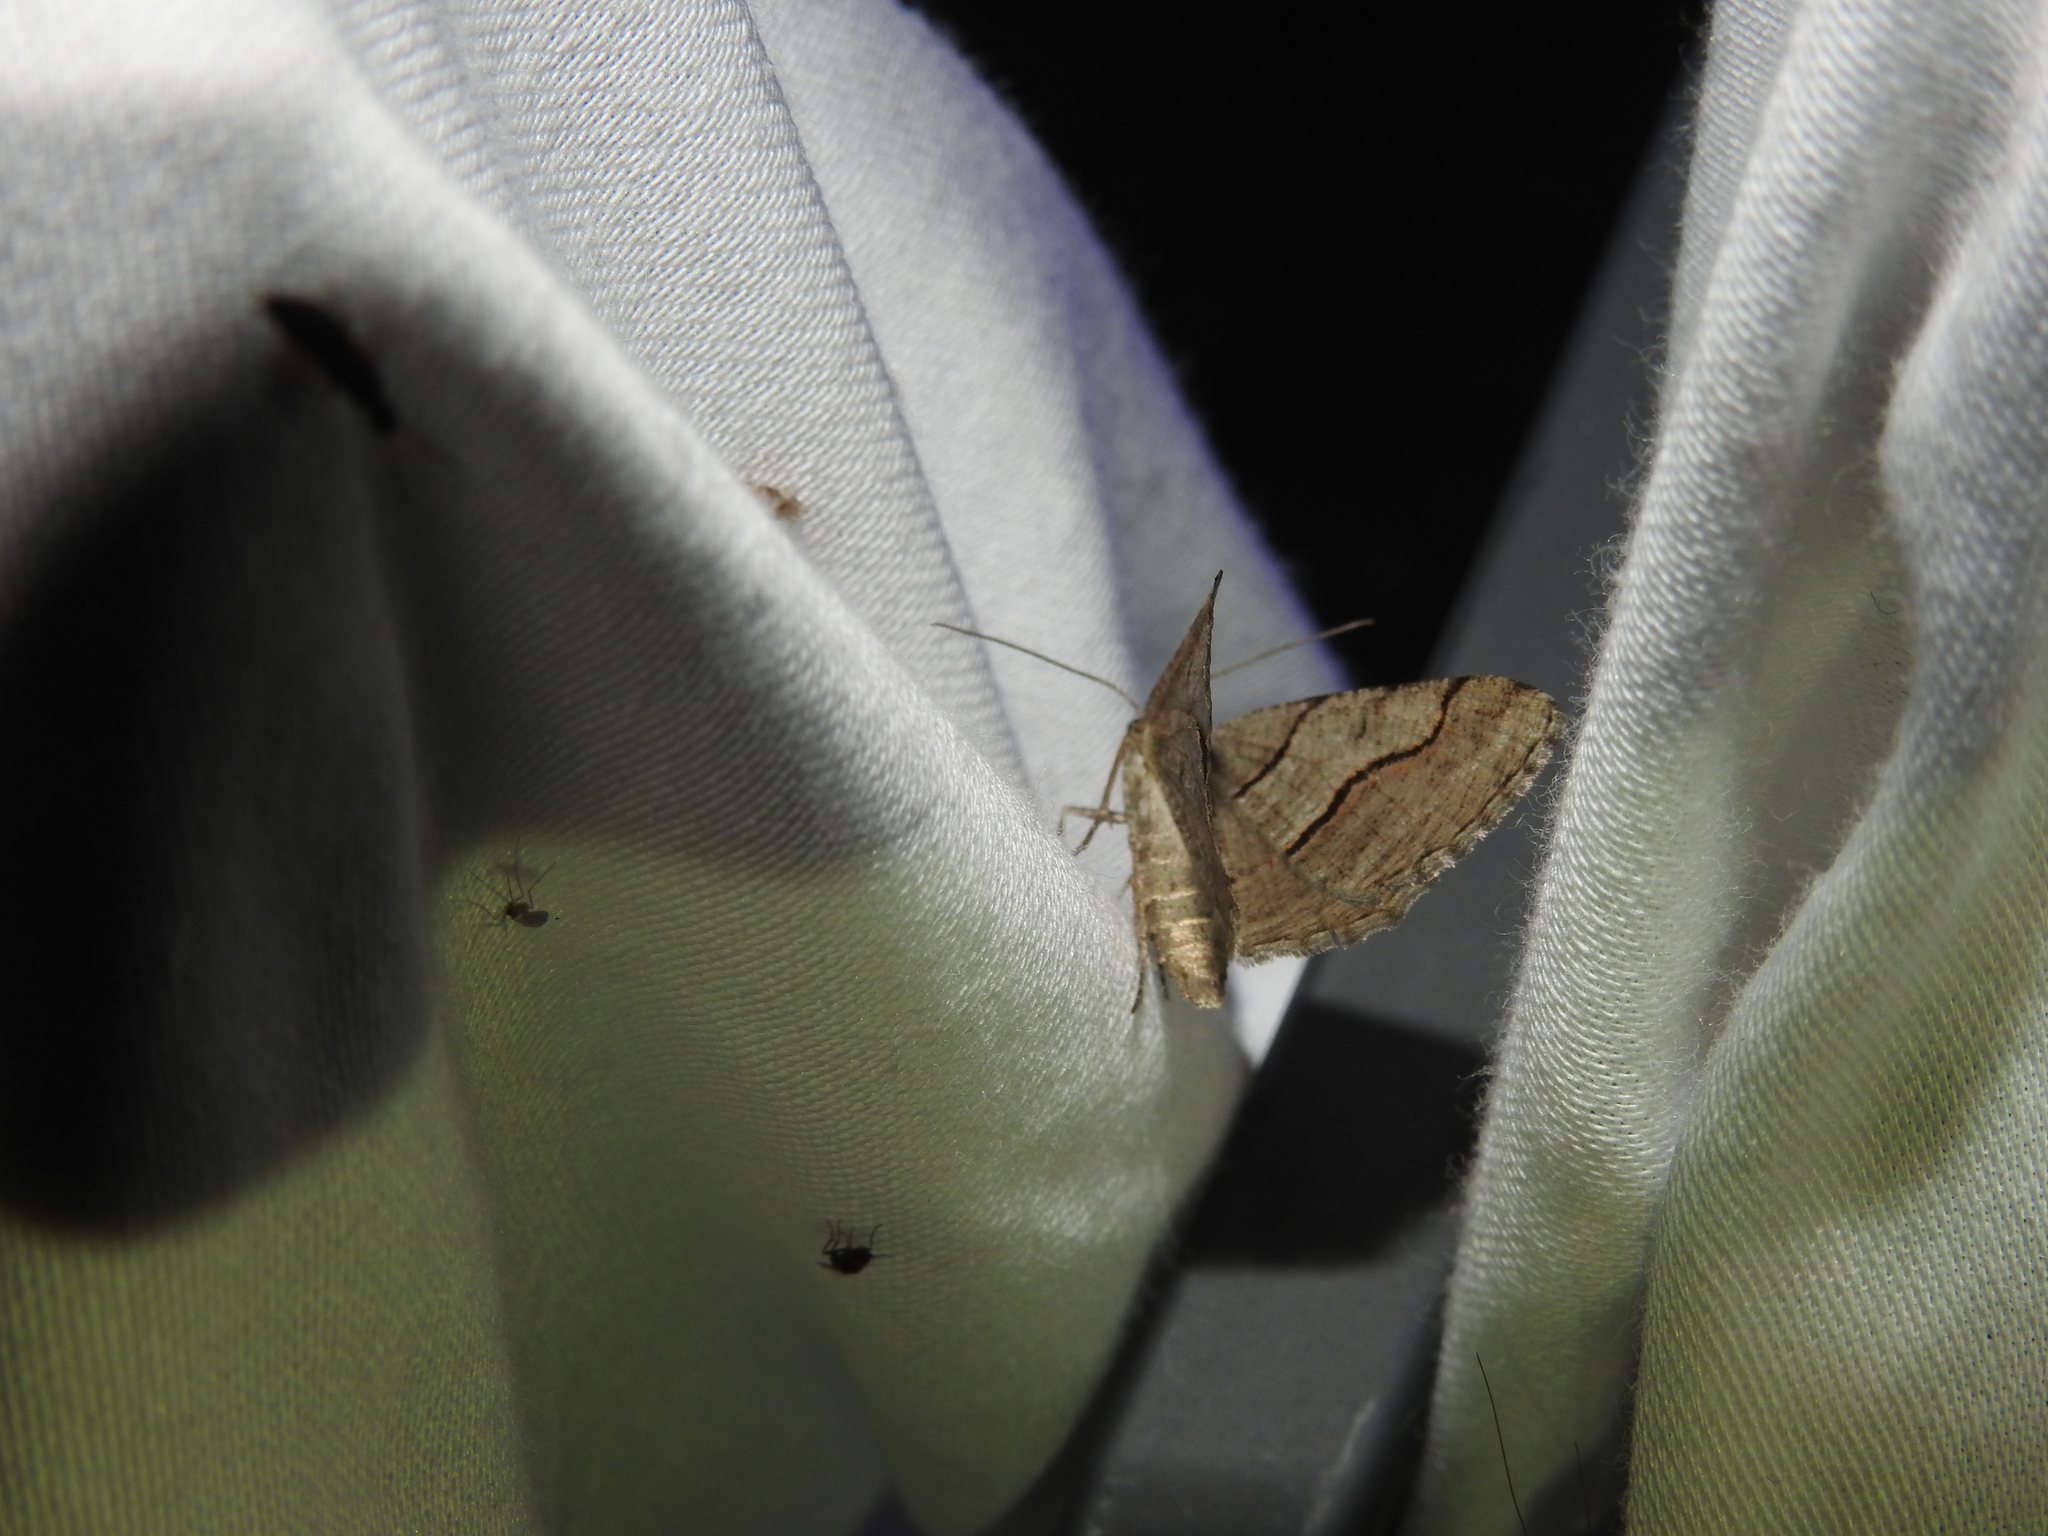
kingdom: Animalia
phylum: Arthropoda
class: Insecta
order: Lepidoptera
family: Geometridae
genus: Digrammia
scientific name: Digrammia continuata
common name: Curve-lined angle
